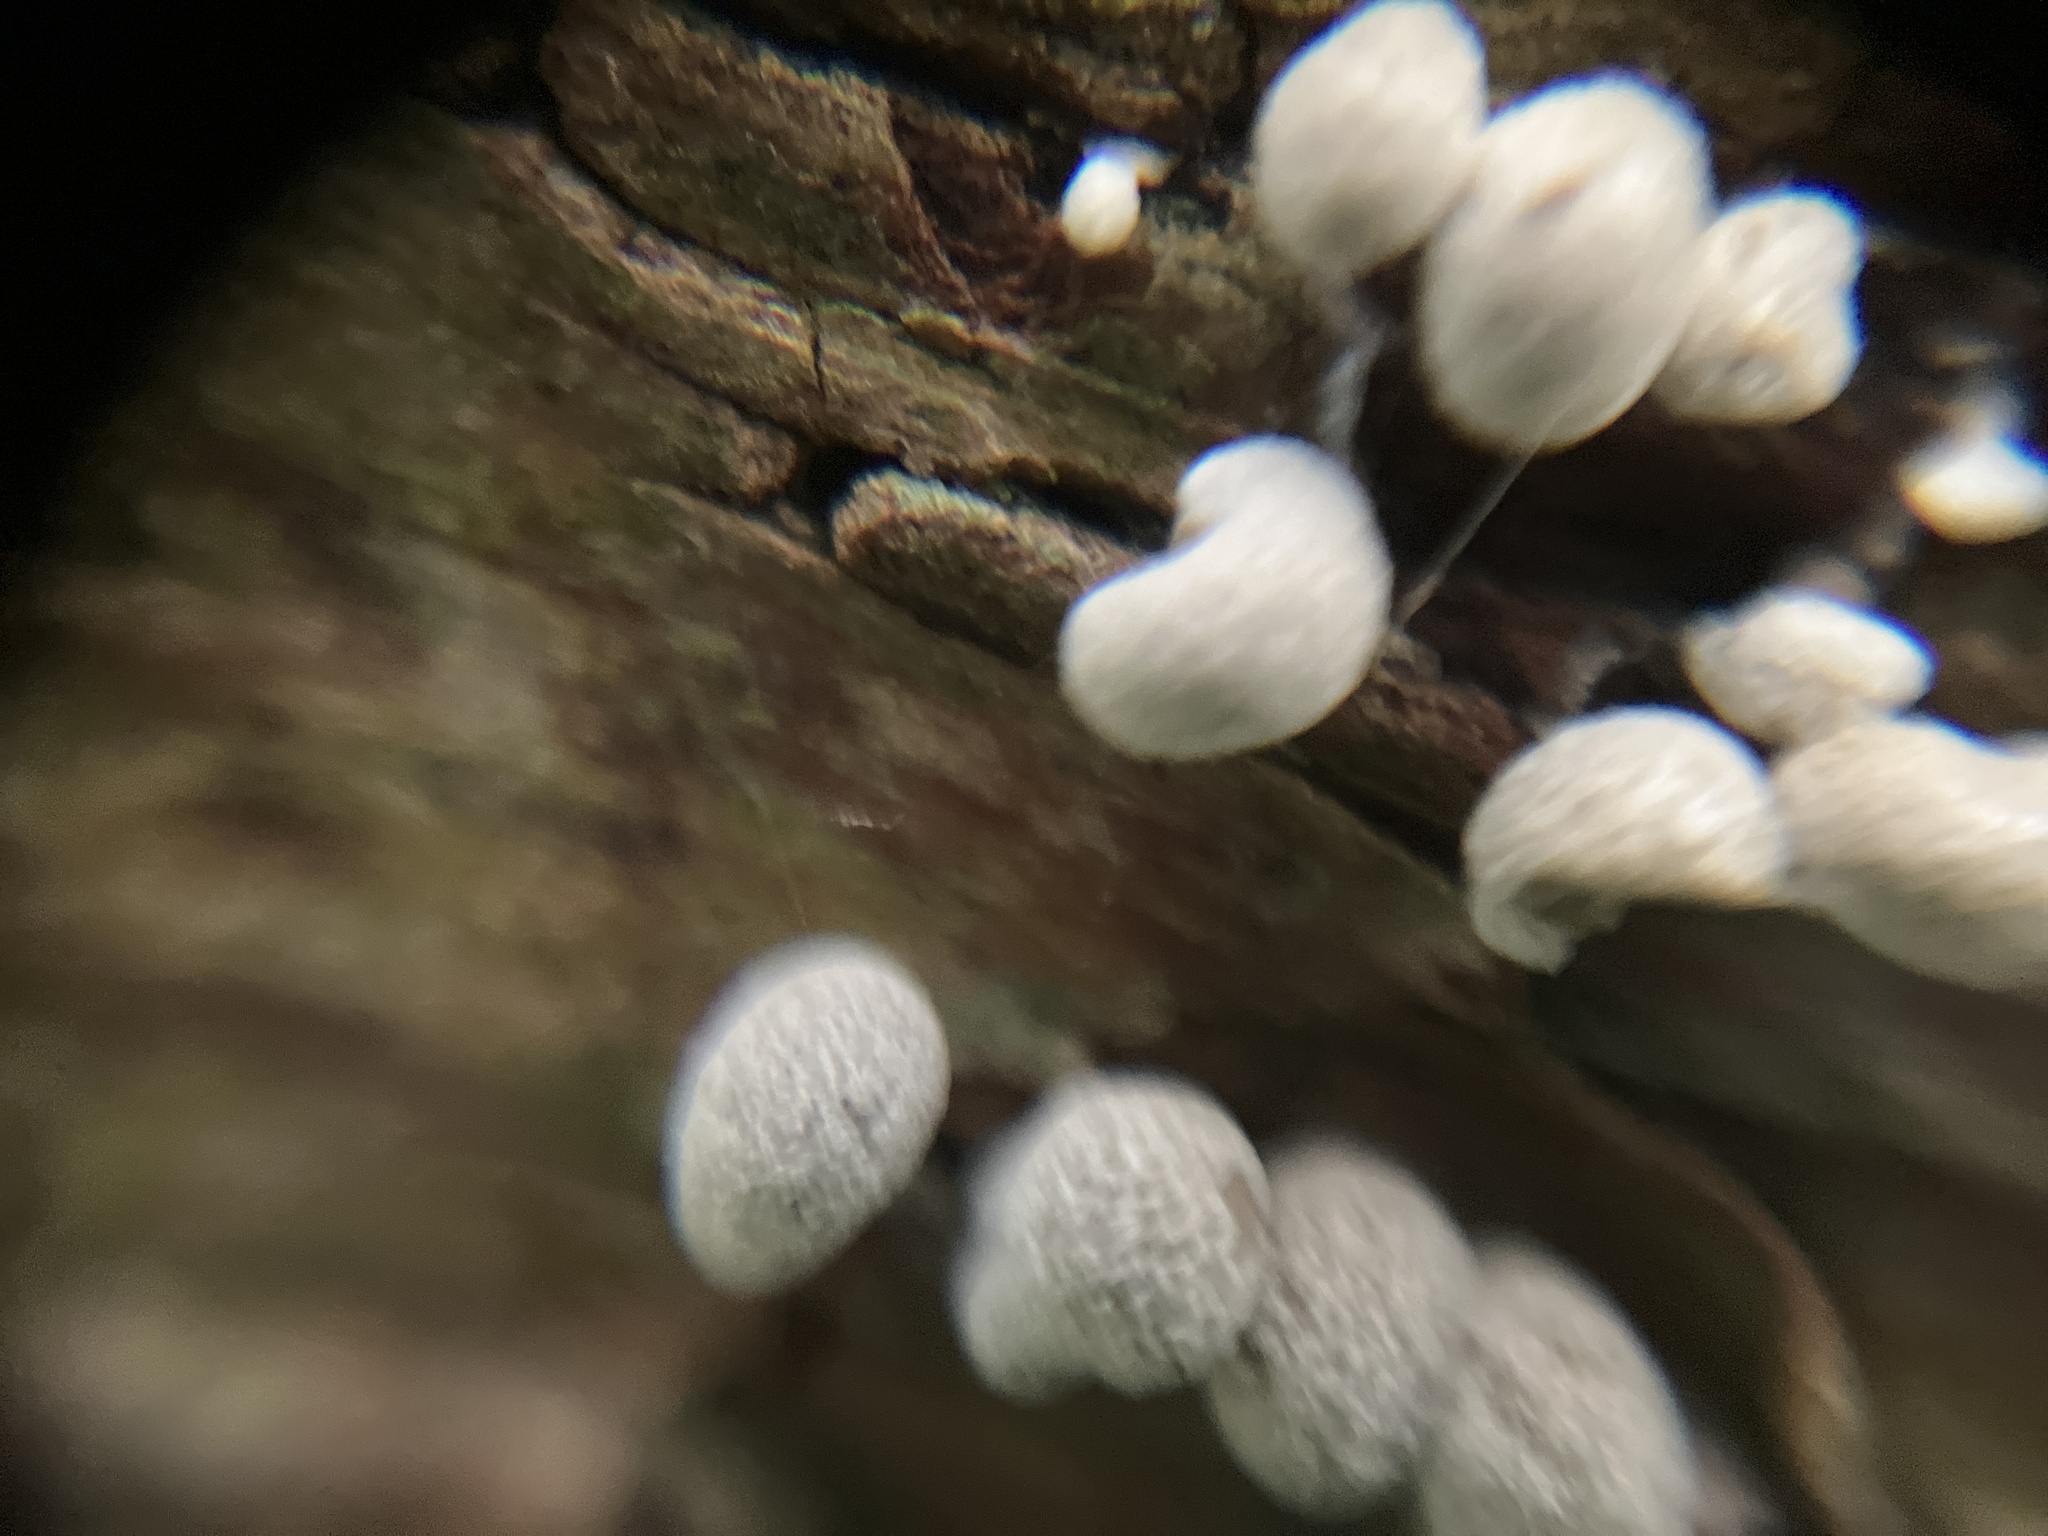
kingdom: Fungi
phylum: Basidiomycota
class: Atractiellomycetes
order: Atractiellales
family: Phleogenaceae
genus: Phleogena
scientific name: Phleogena faginea
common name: Fenugreek stalkball
